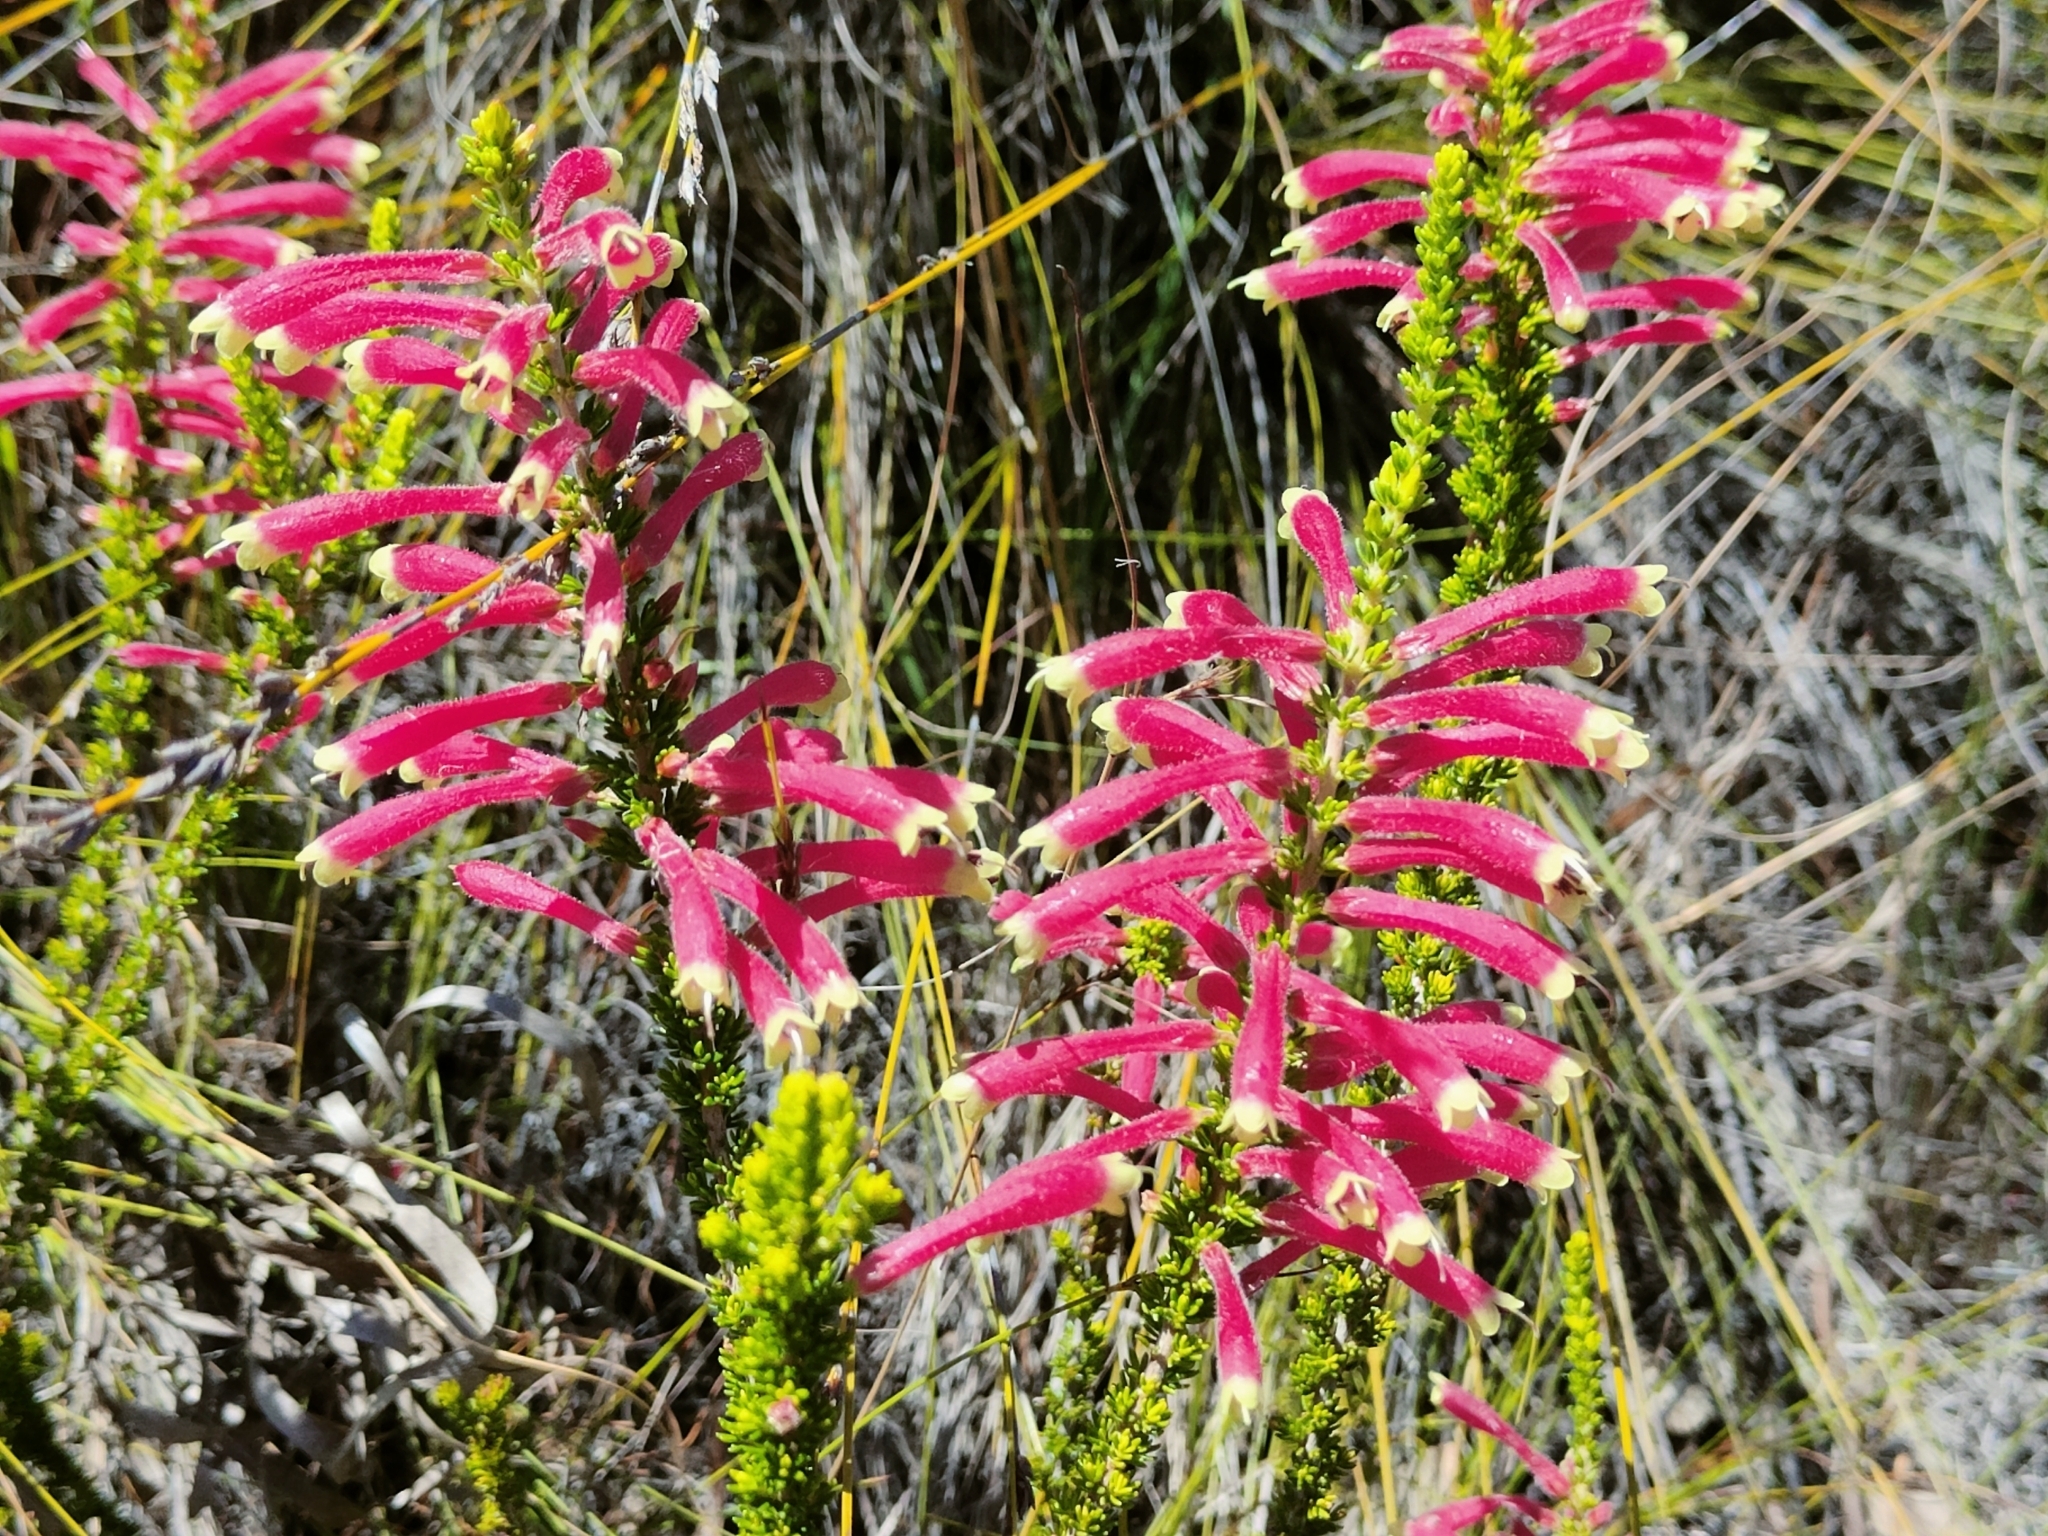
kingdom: Plantae
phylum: Tracheophyta
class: Magnoliopsida
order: Ericales
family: Ericaceae
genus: Erica
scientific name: Erica densifolia
